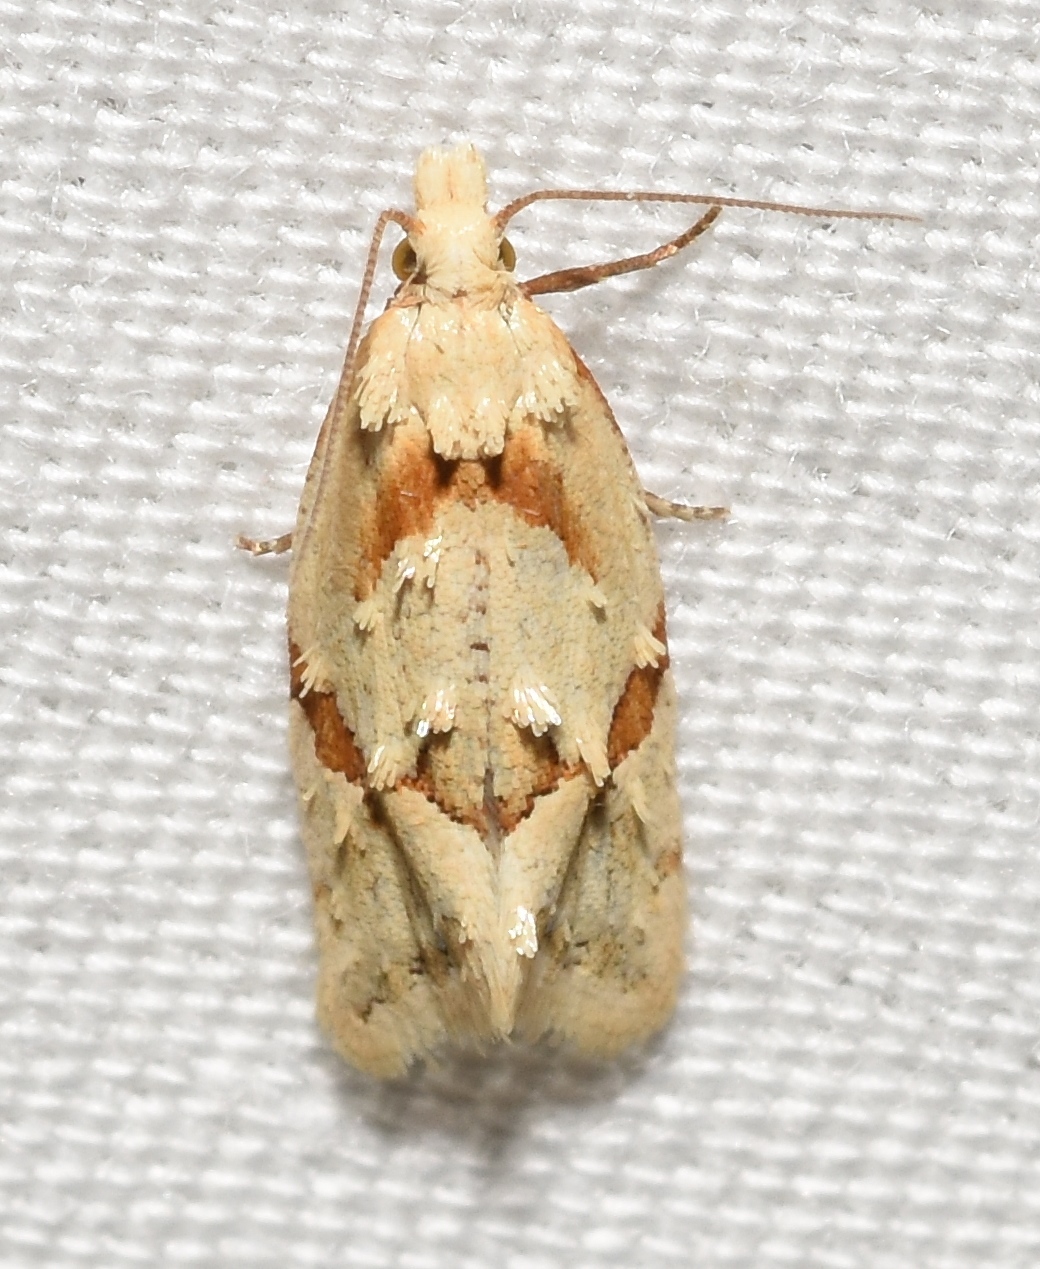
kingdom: Animalia
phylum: Arthropoda
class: Insecta
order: Lepidoptera
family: Tortricidae
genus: Aethes
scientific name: Aethes baloghi
